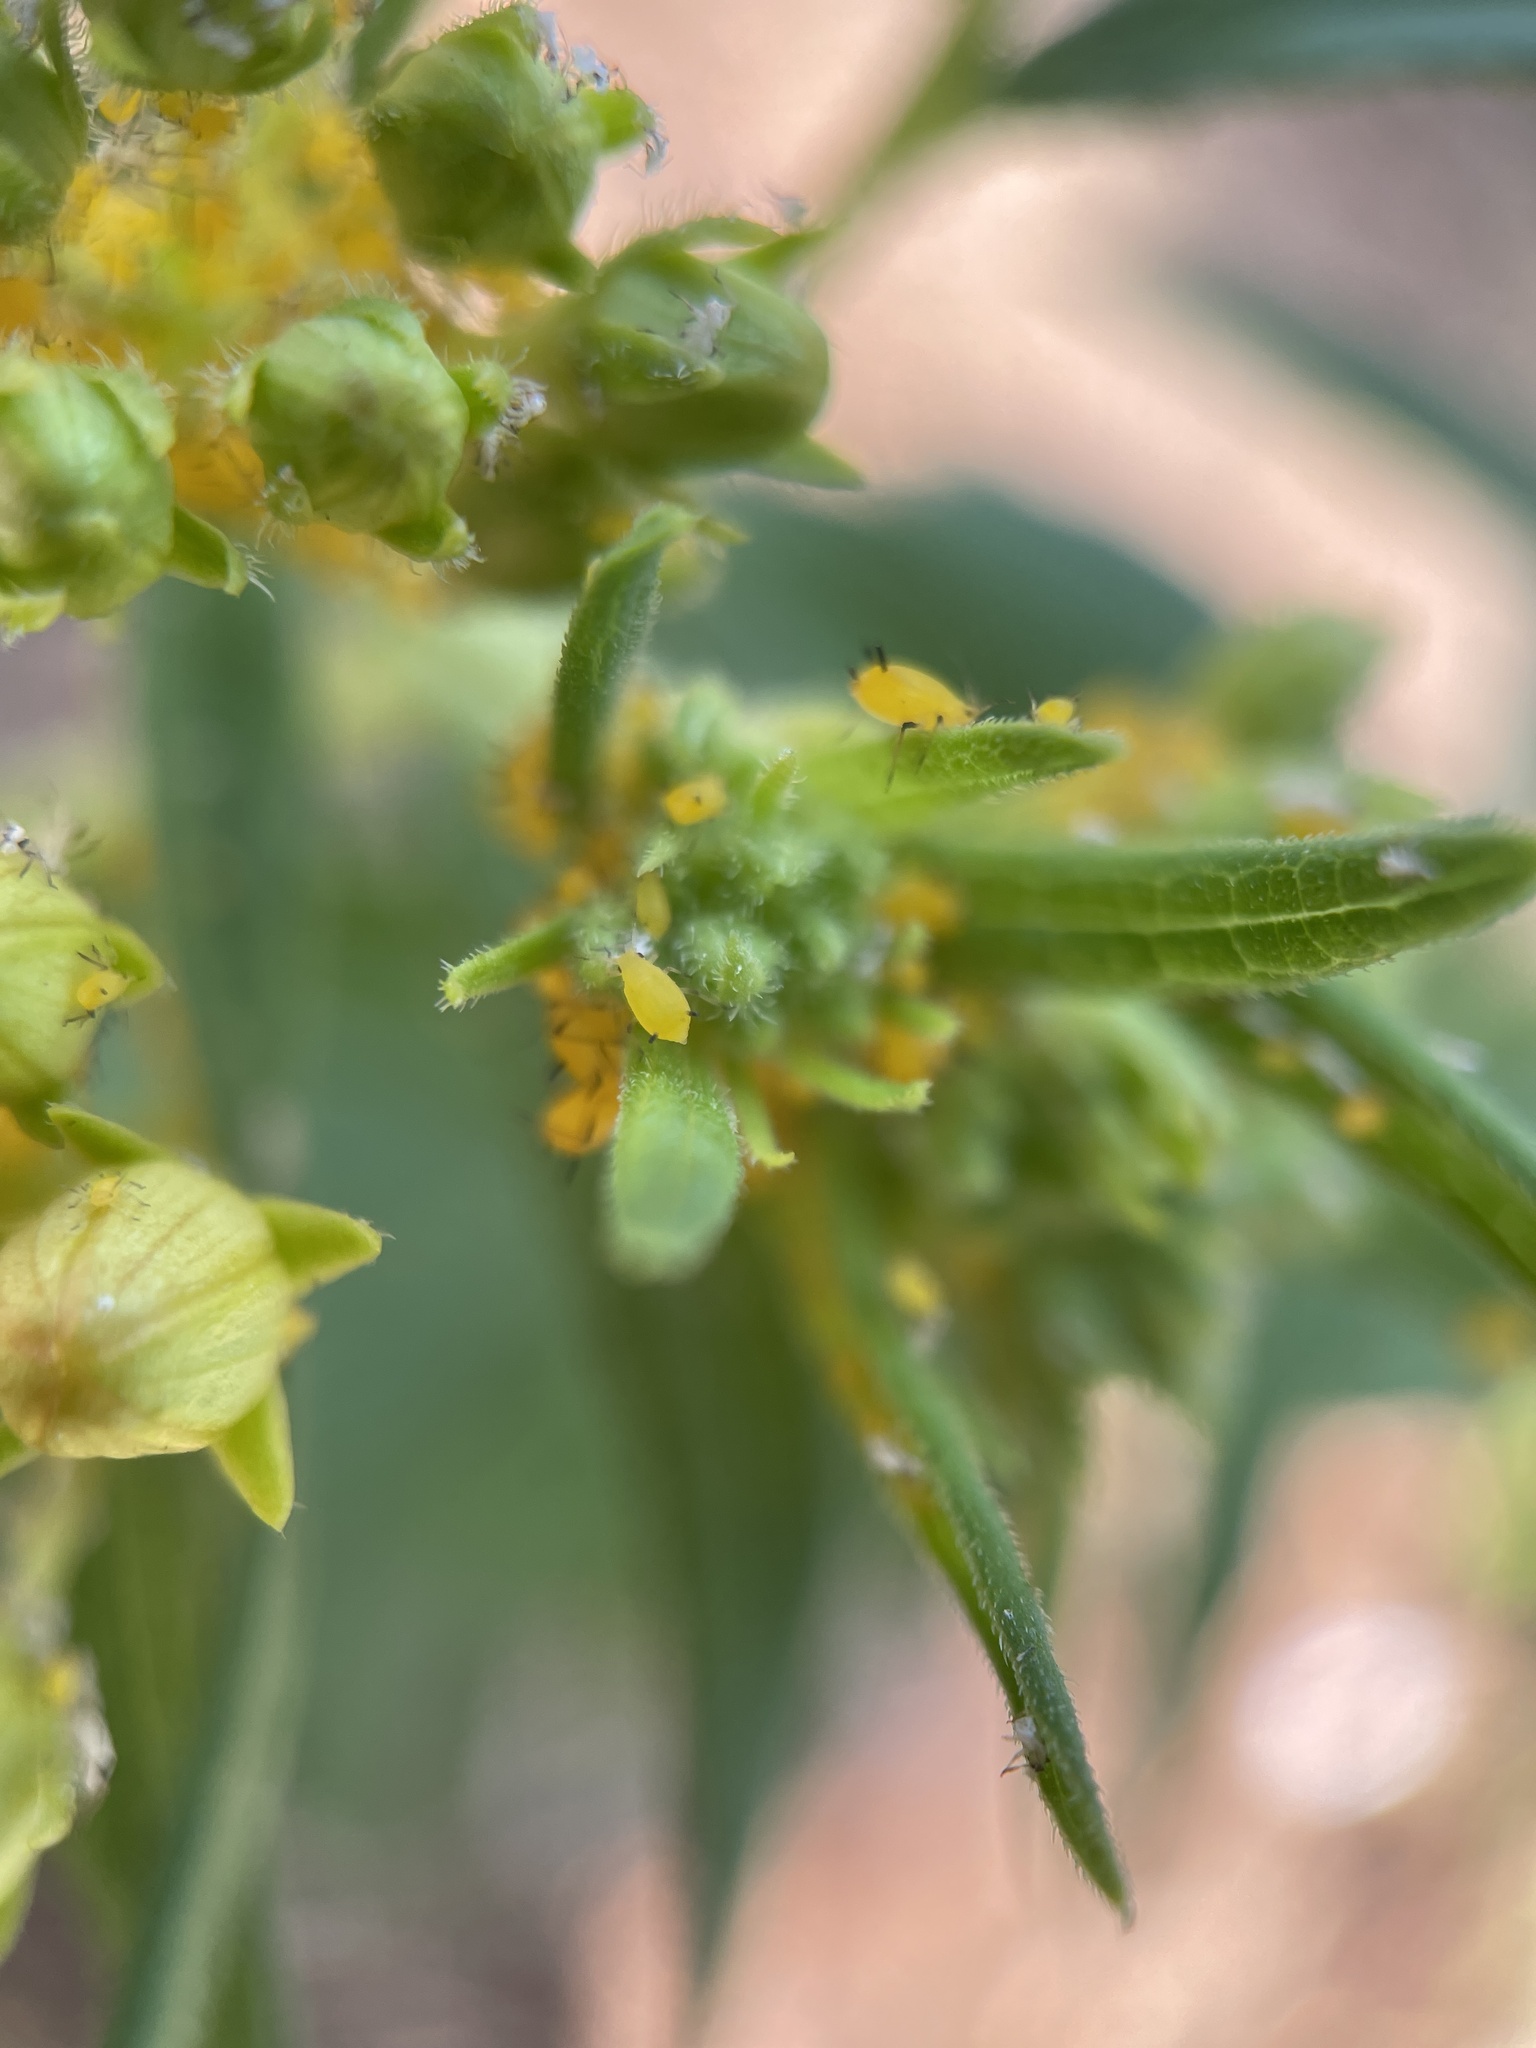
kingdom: Animalia
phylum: Arthropoda
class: Insecta
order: Hemiptera
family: Aphididae
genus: Aphis
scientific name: Aphis nerii
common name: Oleander aphid
